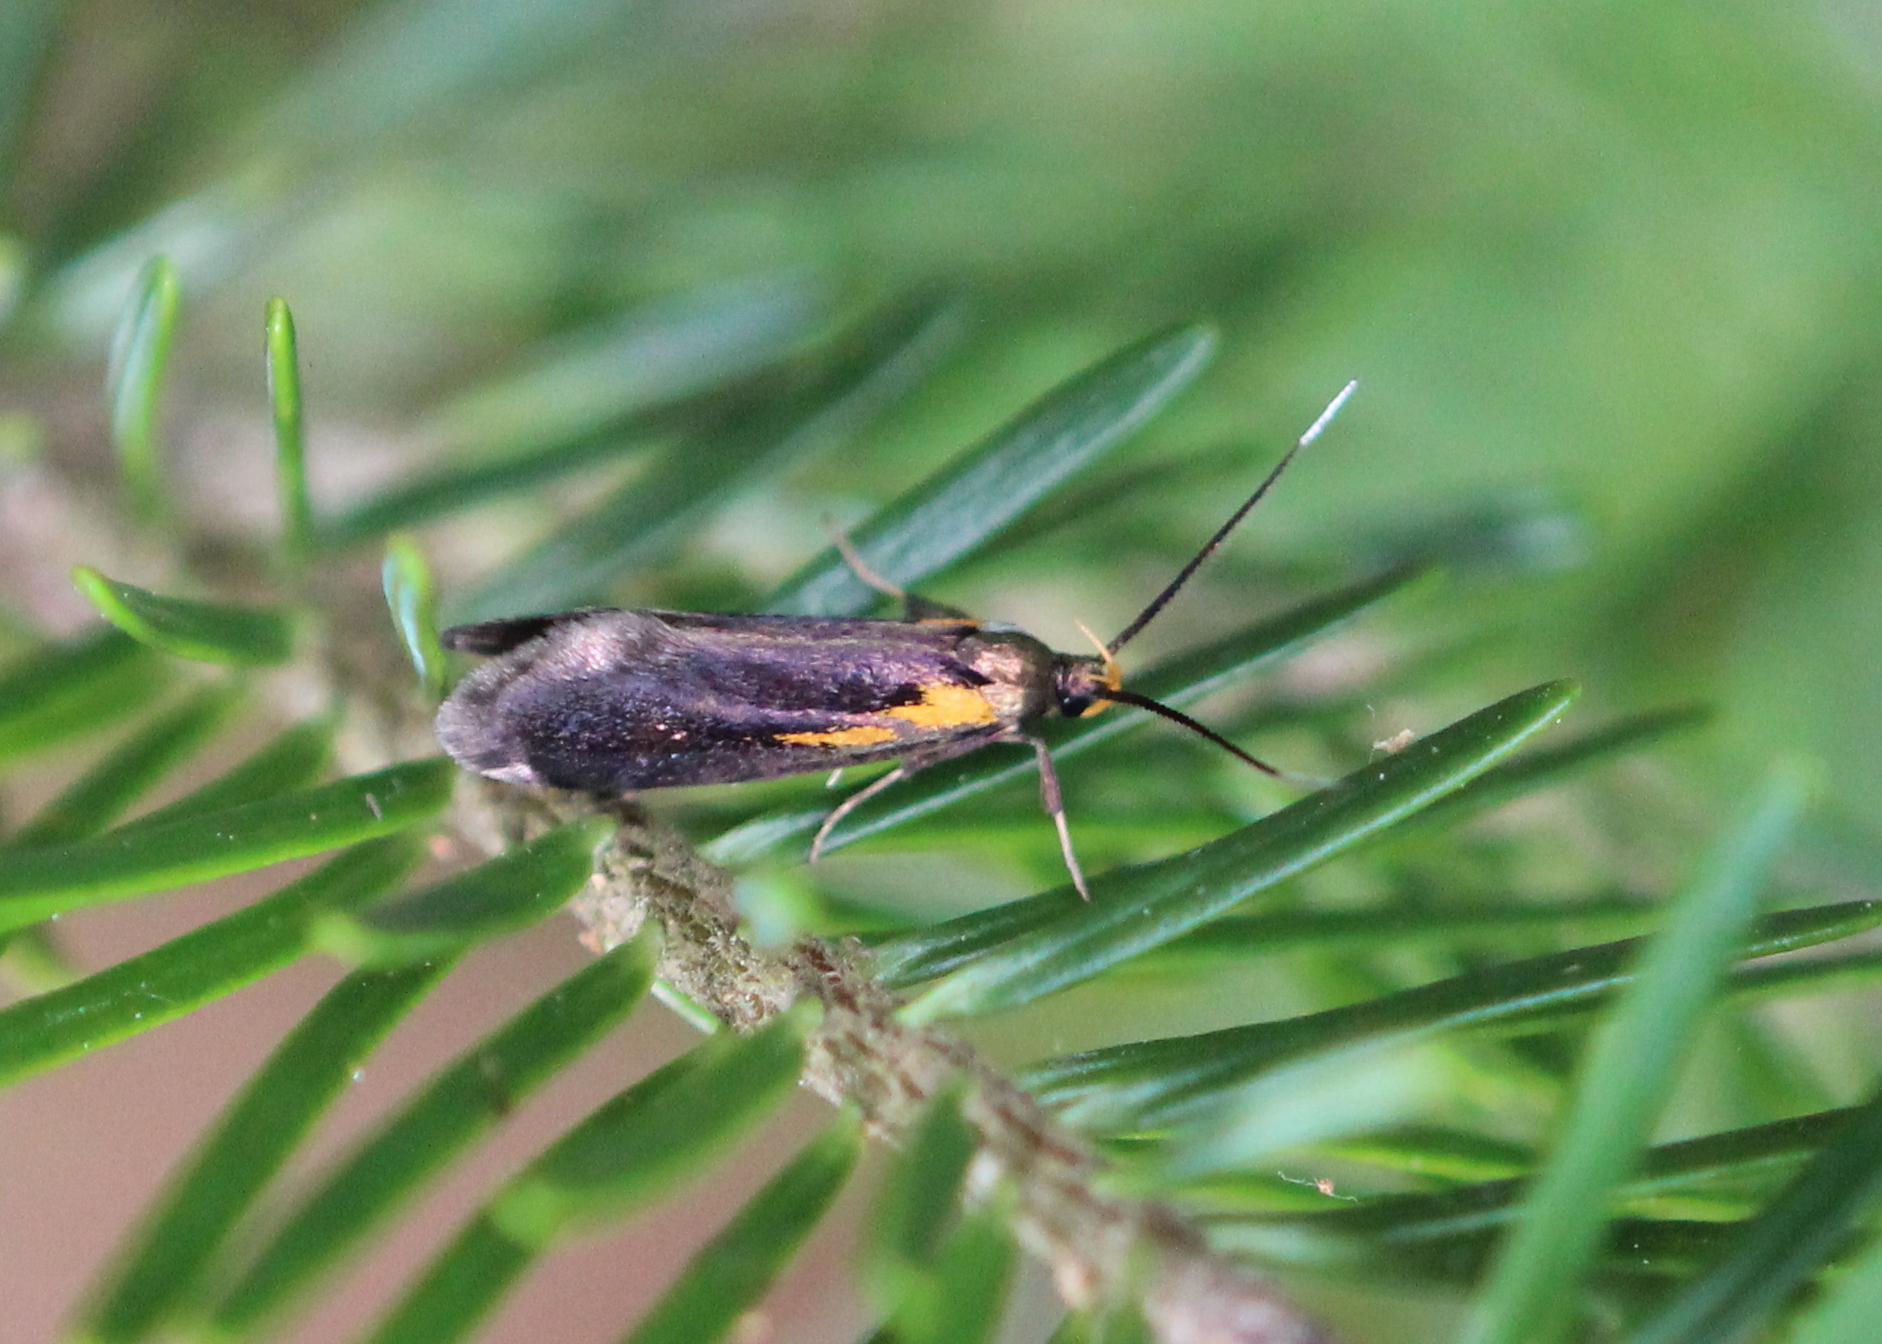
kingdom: Animalia
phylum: Arthropoda
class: Insecta
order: Lepidoptera
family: Oecophoridae
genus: Mathildana
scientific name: Mathildana newmanella
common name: Newman's mathildana moth
